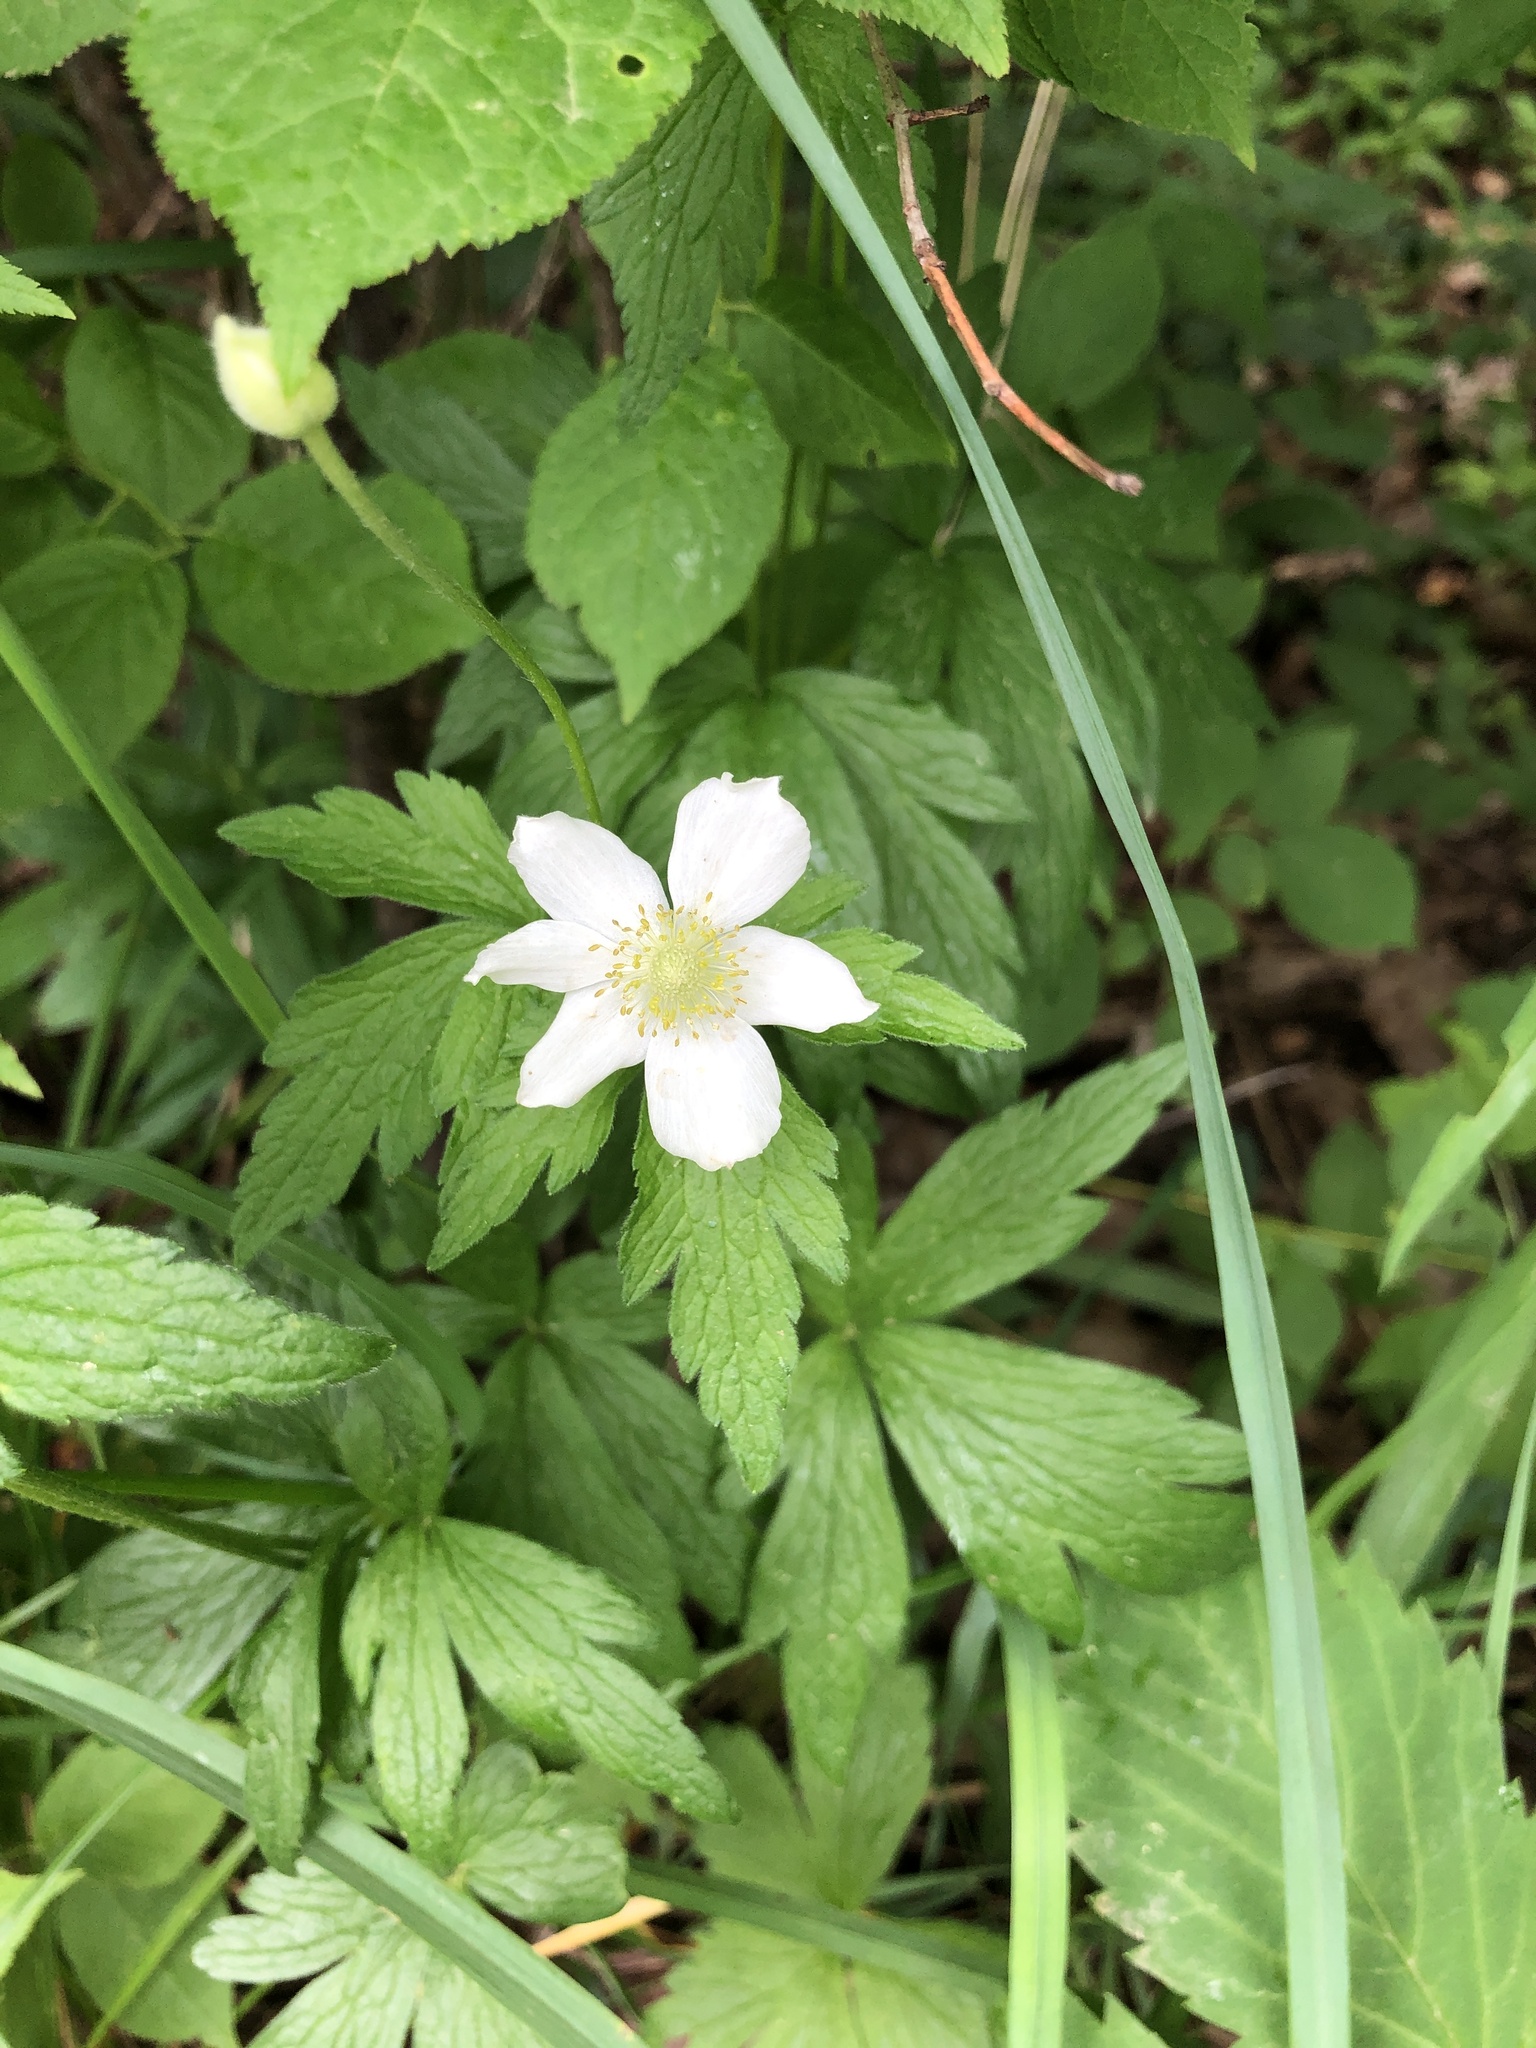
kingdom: Plantae
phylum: Tracheophyta
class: Magnoliopsida
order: Ranunculales
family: Ranunculaceae
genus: Anemone
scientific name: Anemone virginiana
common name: Tall anemone
